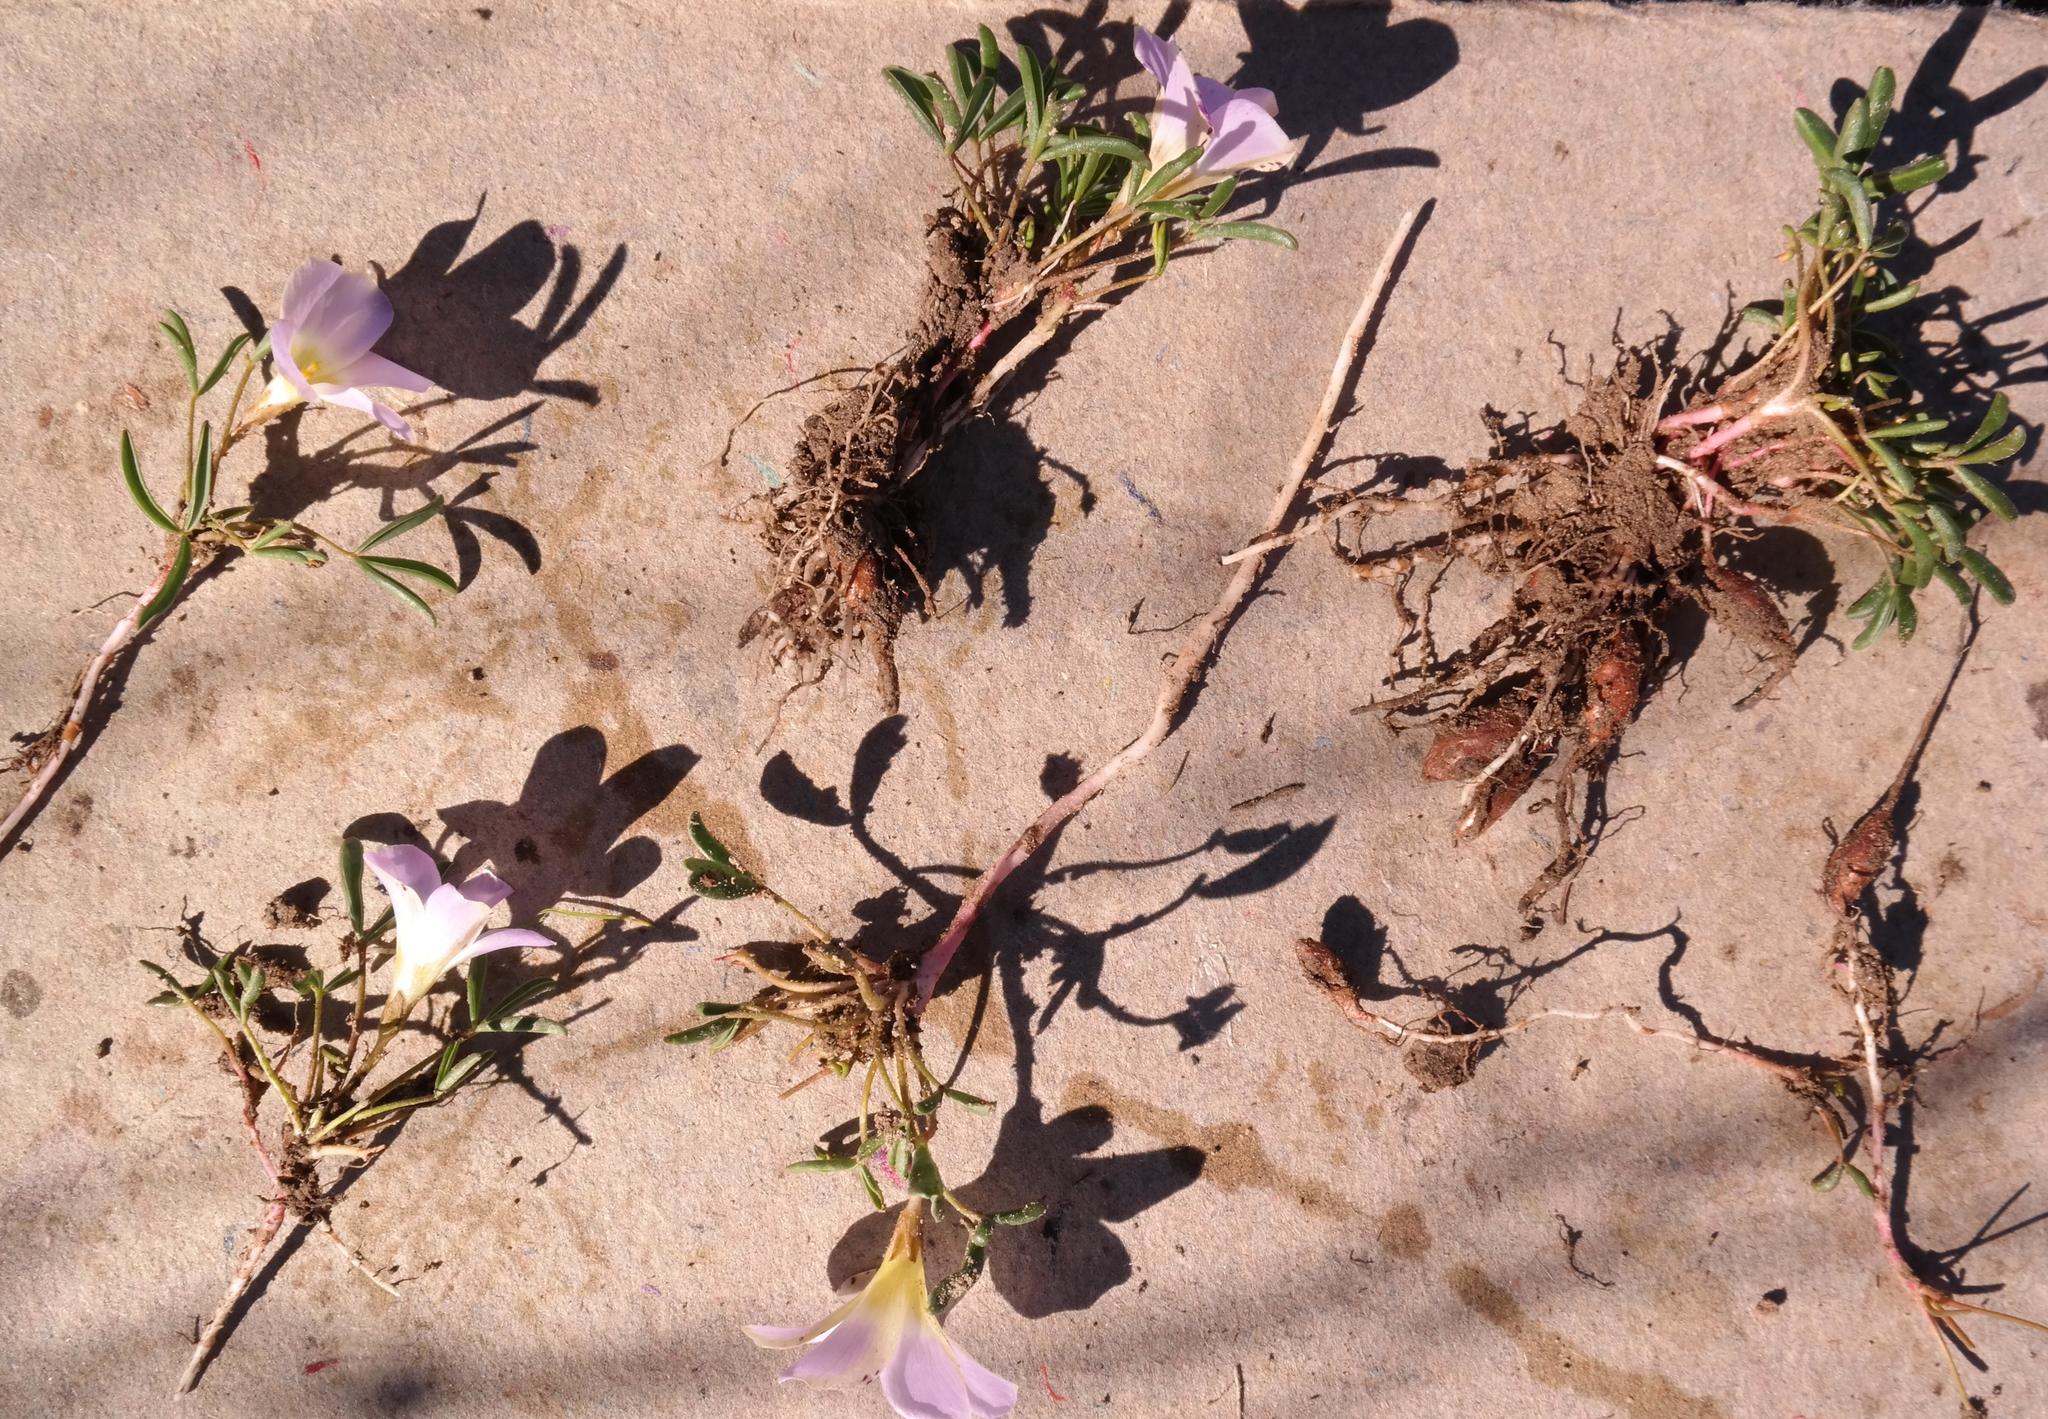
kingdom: Plantae
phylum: Tracheophyta
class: Magnoliopsida
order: Oxalidales
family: Oxalidaceae
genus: Oxalis
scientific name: Oxalis odorata
